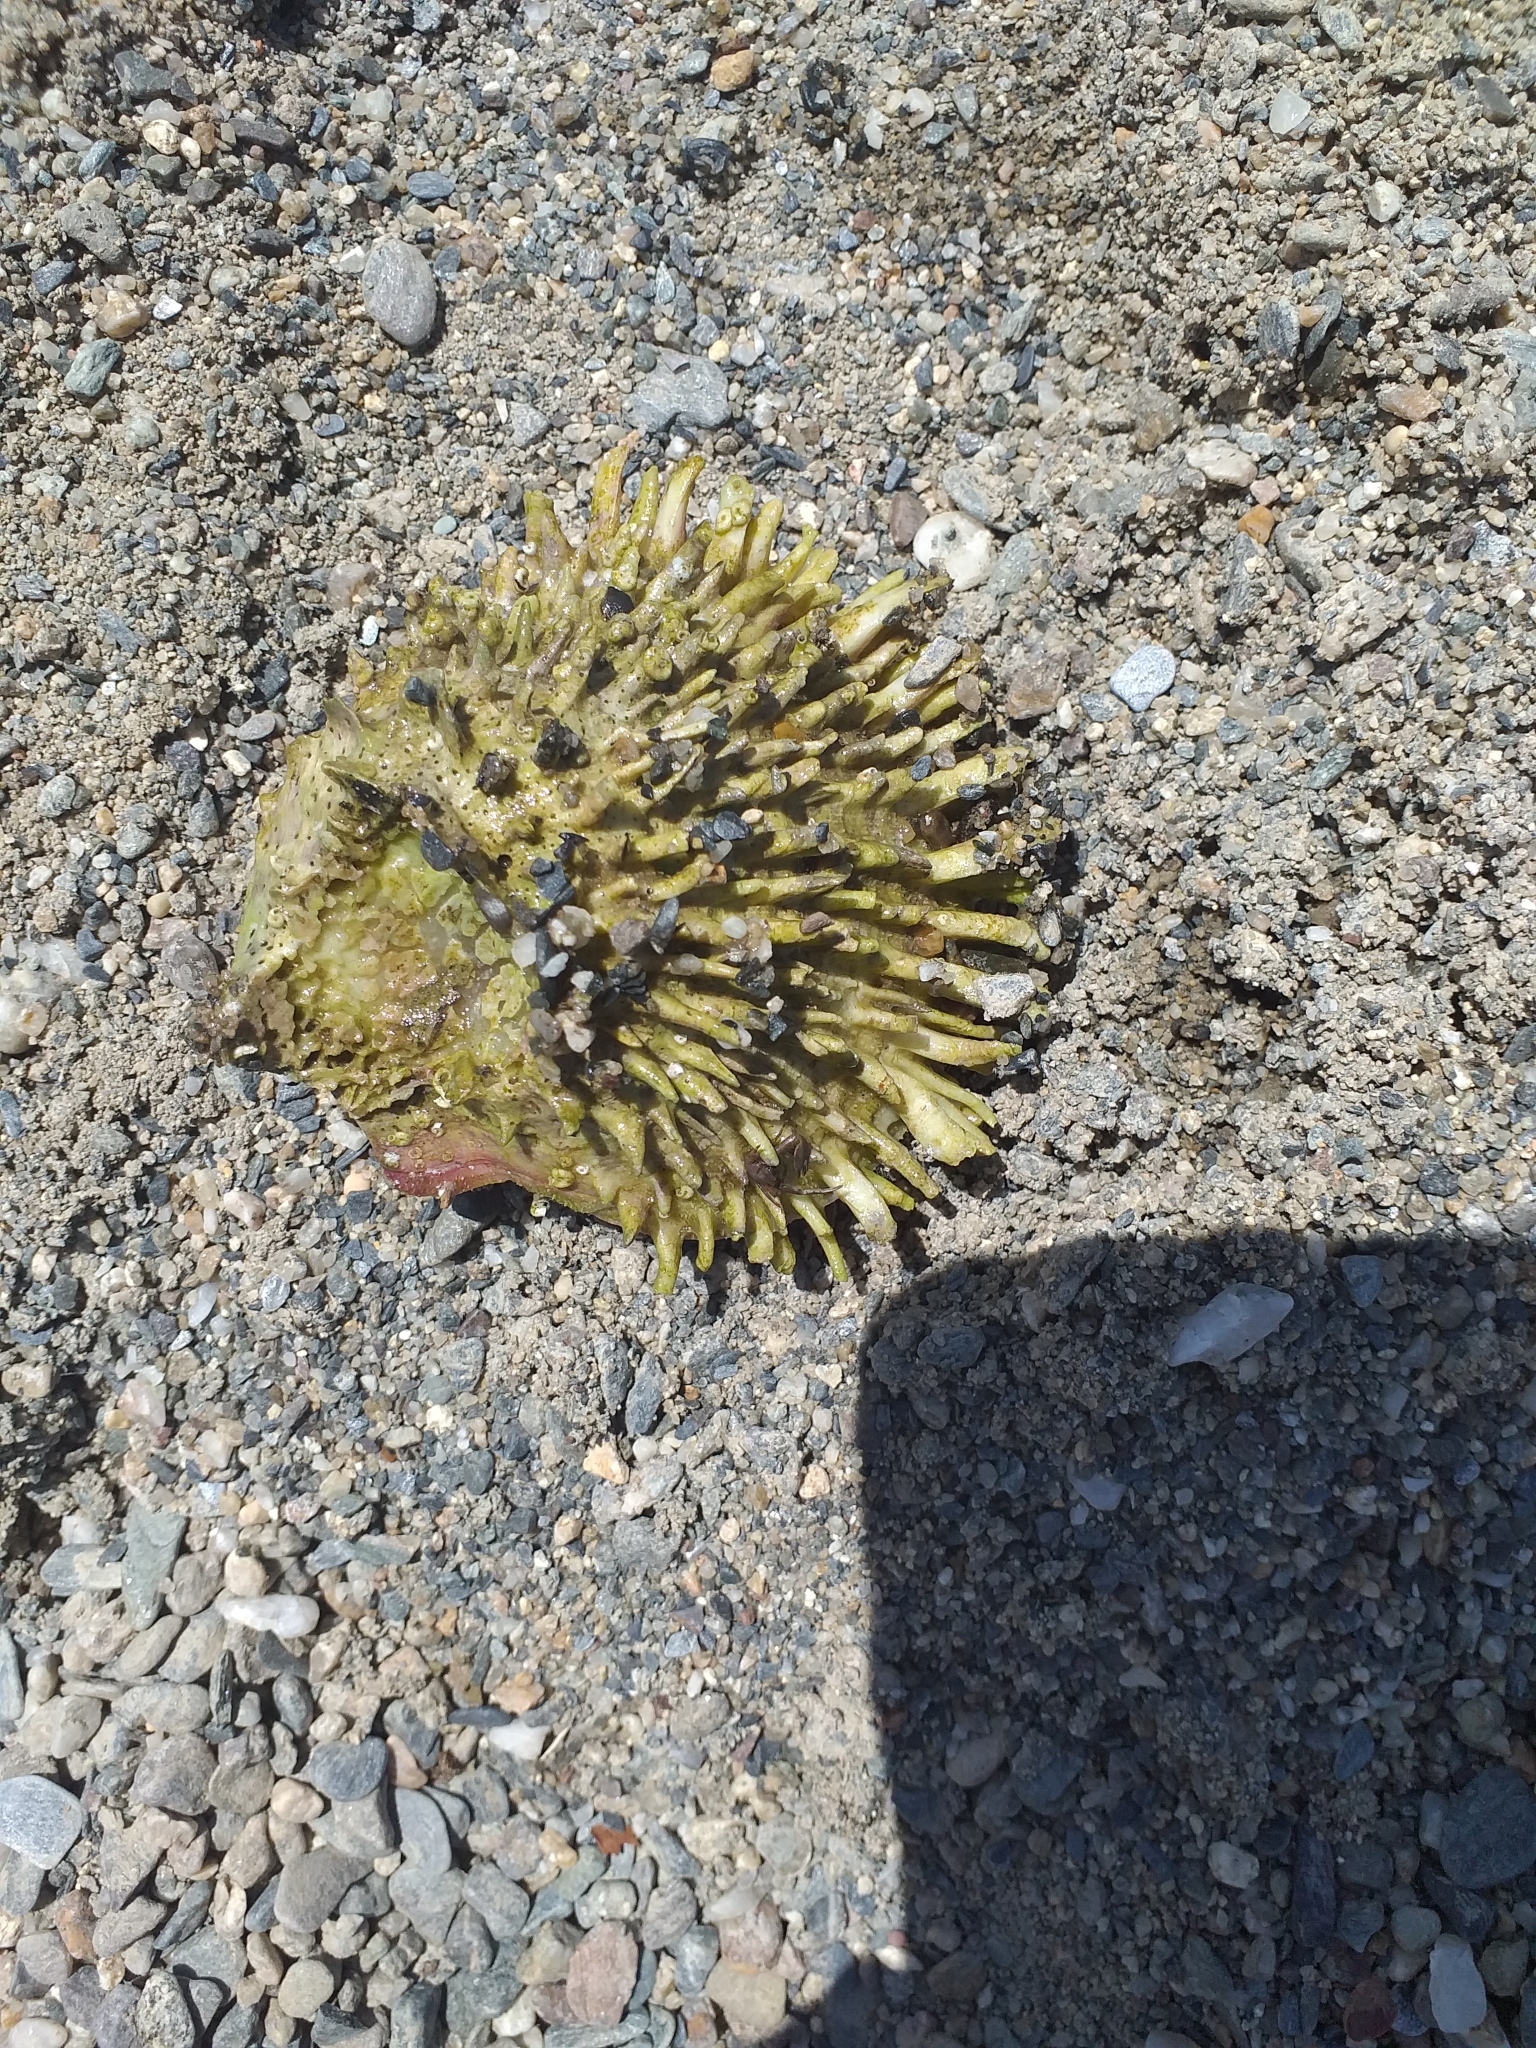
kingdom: Animalia
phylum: Mollusca
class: Bivalvia
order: Pectinida
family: Spondylidae
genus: Spondylus
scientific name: Spondylus gaederopus
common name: European thorny oyster
